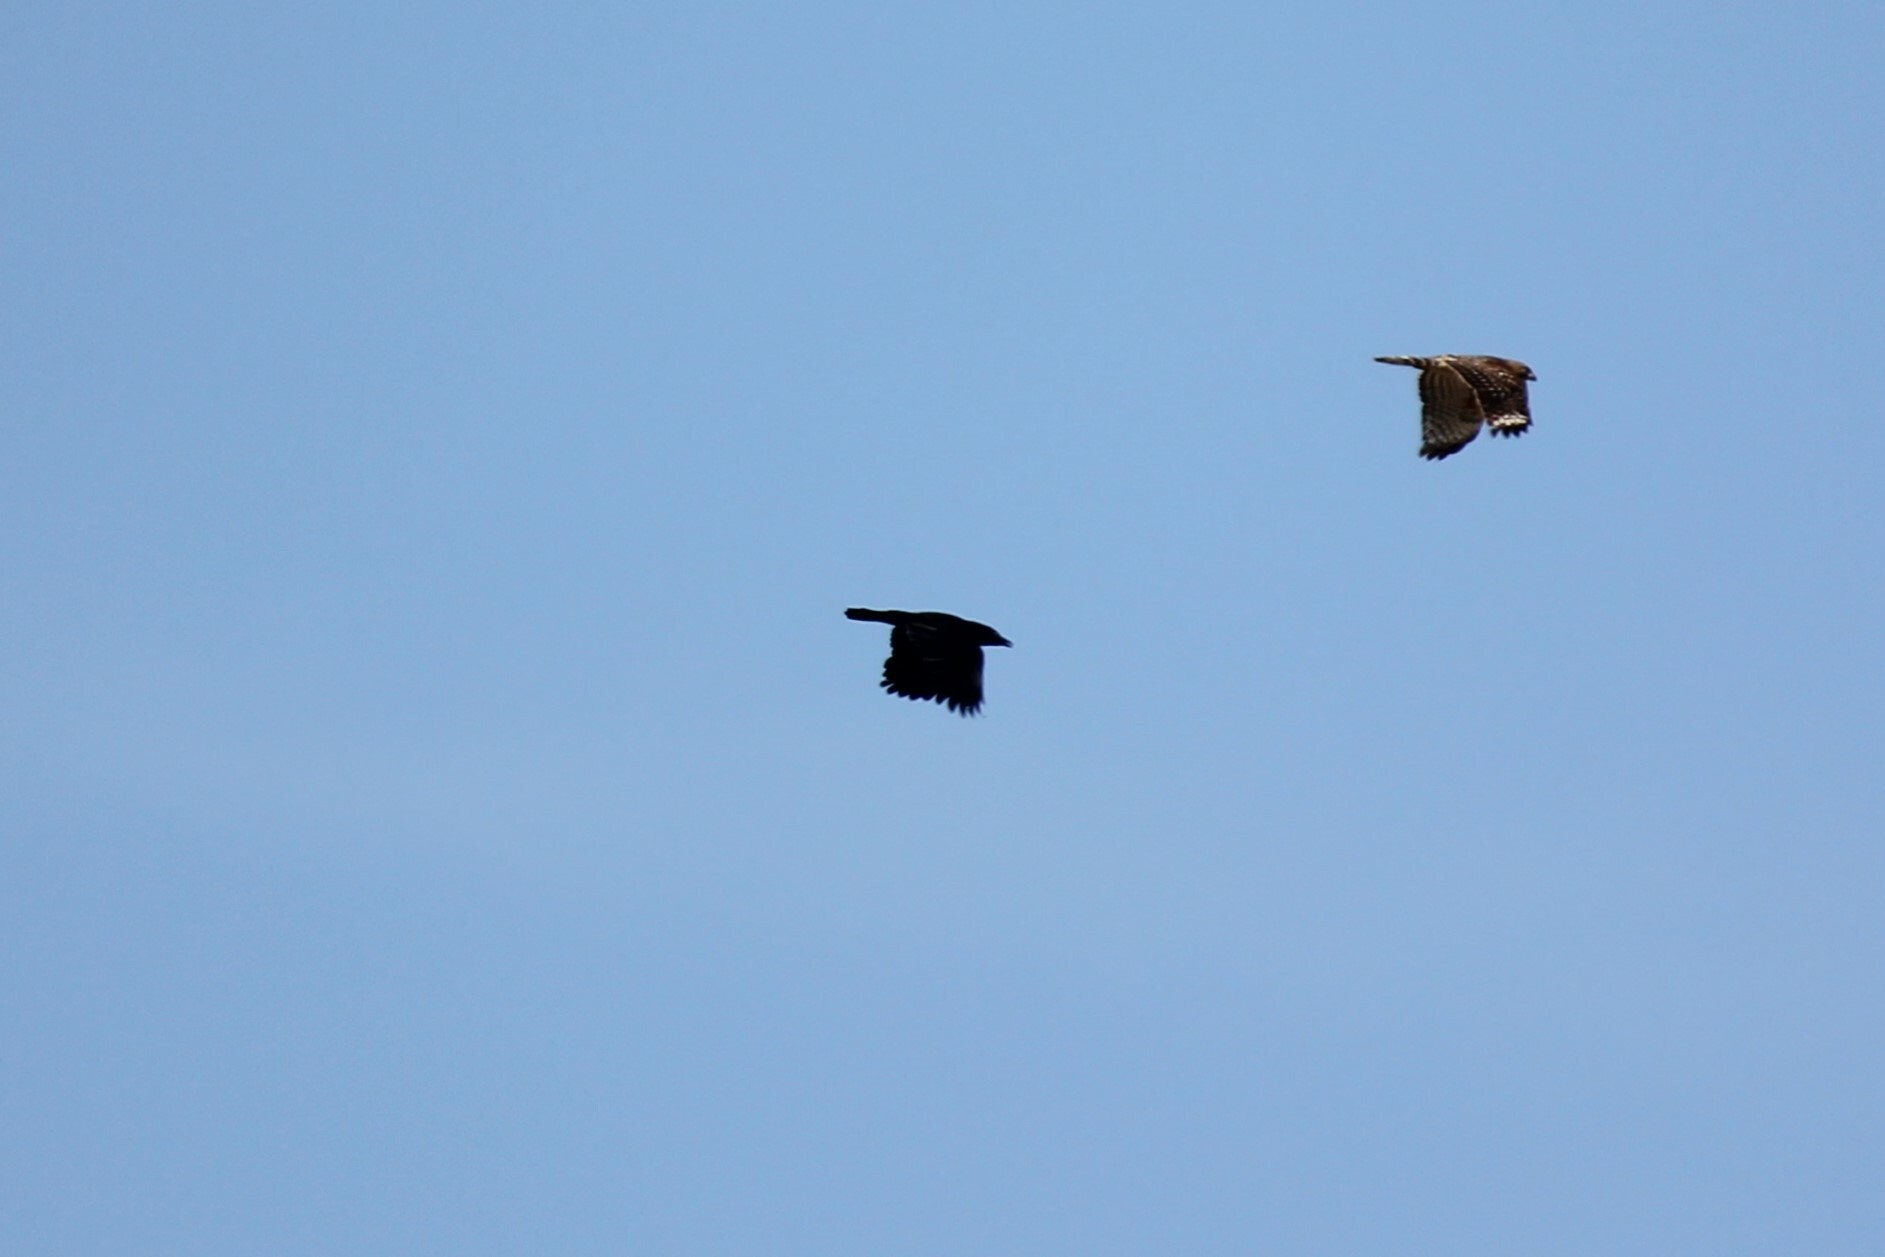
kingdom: Animalia
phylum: Chordata
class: Aves
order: Passeriformes
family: Corvidae
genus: Corvus
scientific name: Corvus brachyrhynchos
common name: American crow
